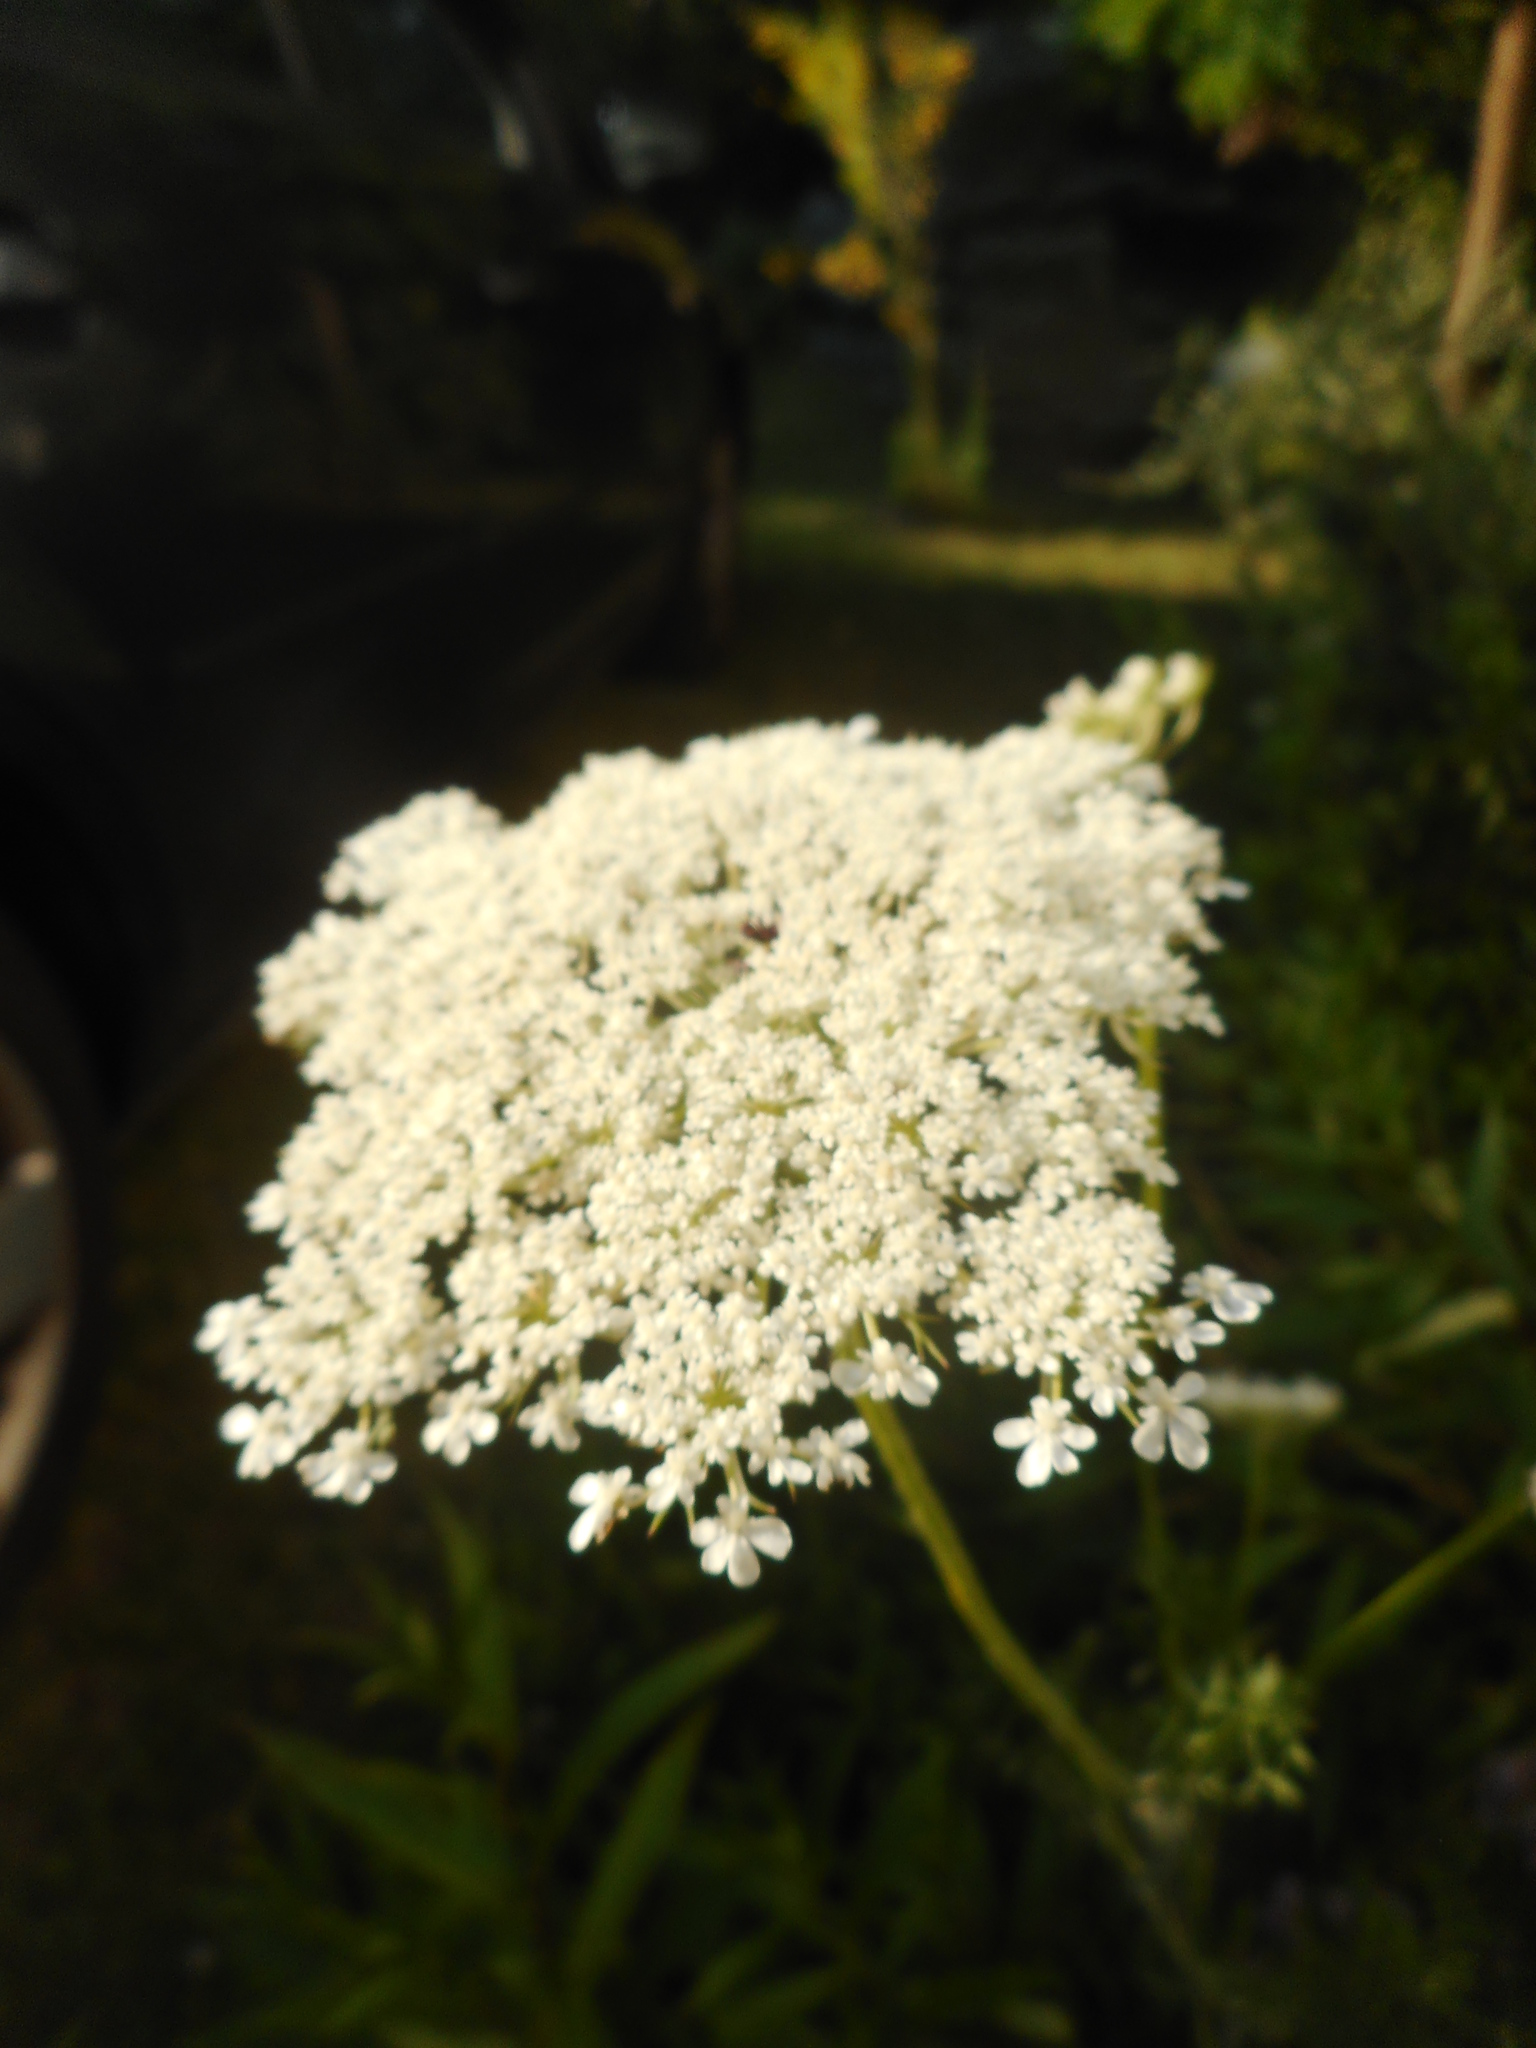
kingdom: Plantae
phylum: Tracheophyta
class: Magnoliopsida
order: Dipsacales
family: Viburnaceae
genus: Sambucus
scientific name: Sambucus nigra
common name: Elder
